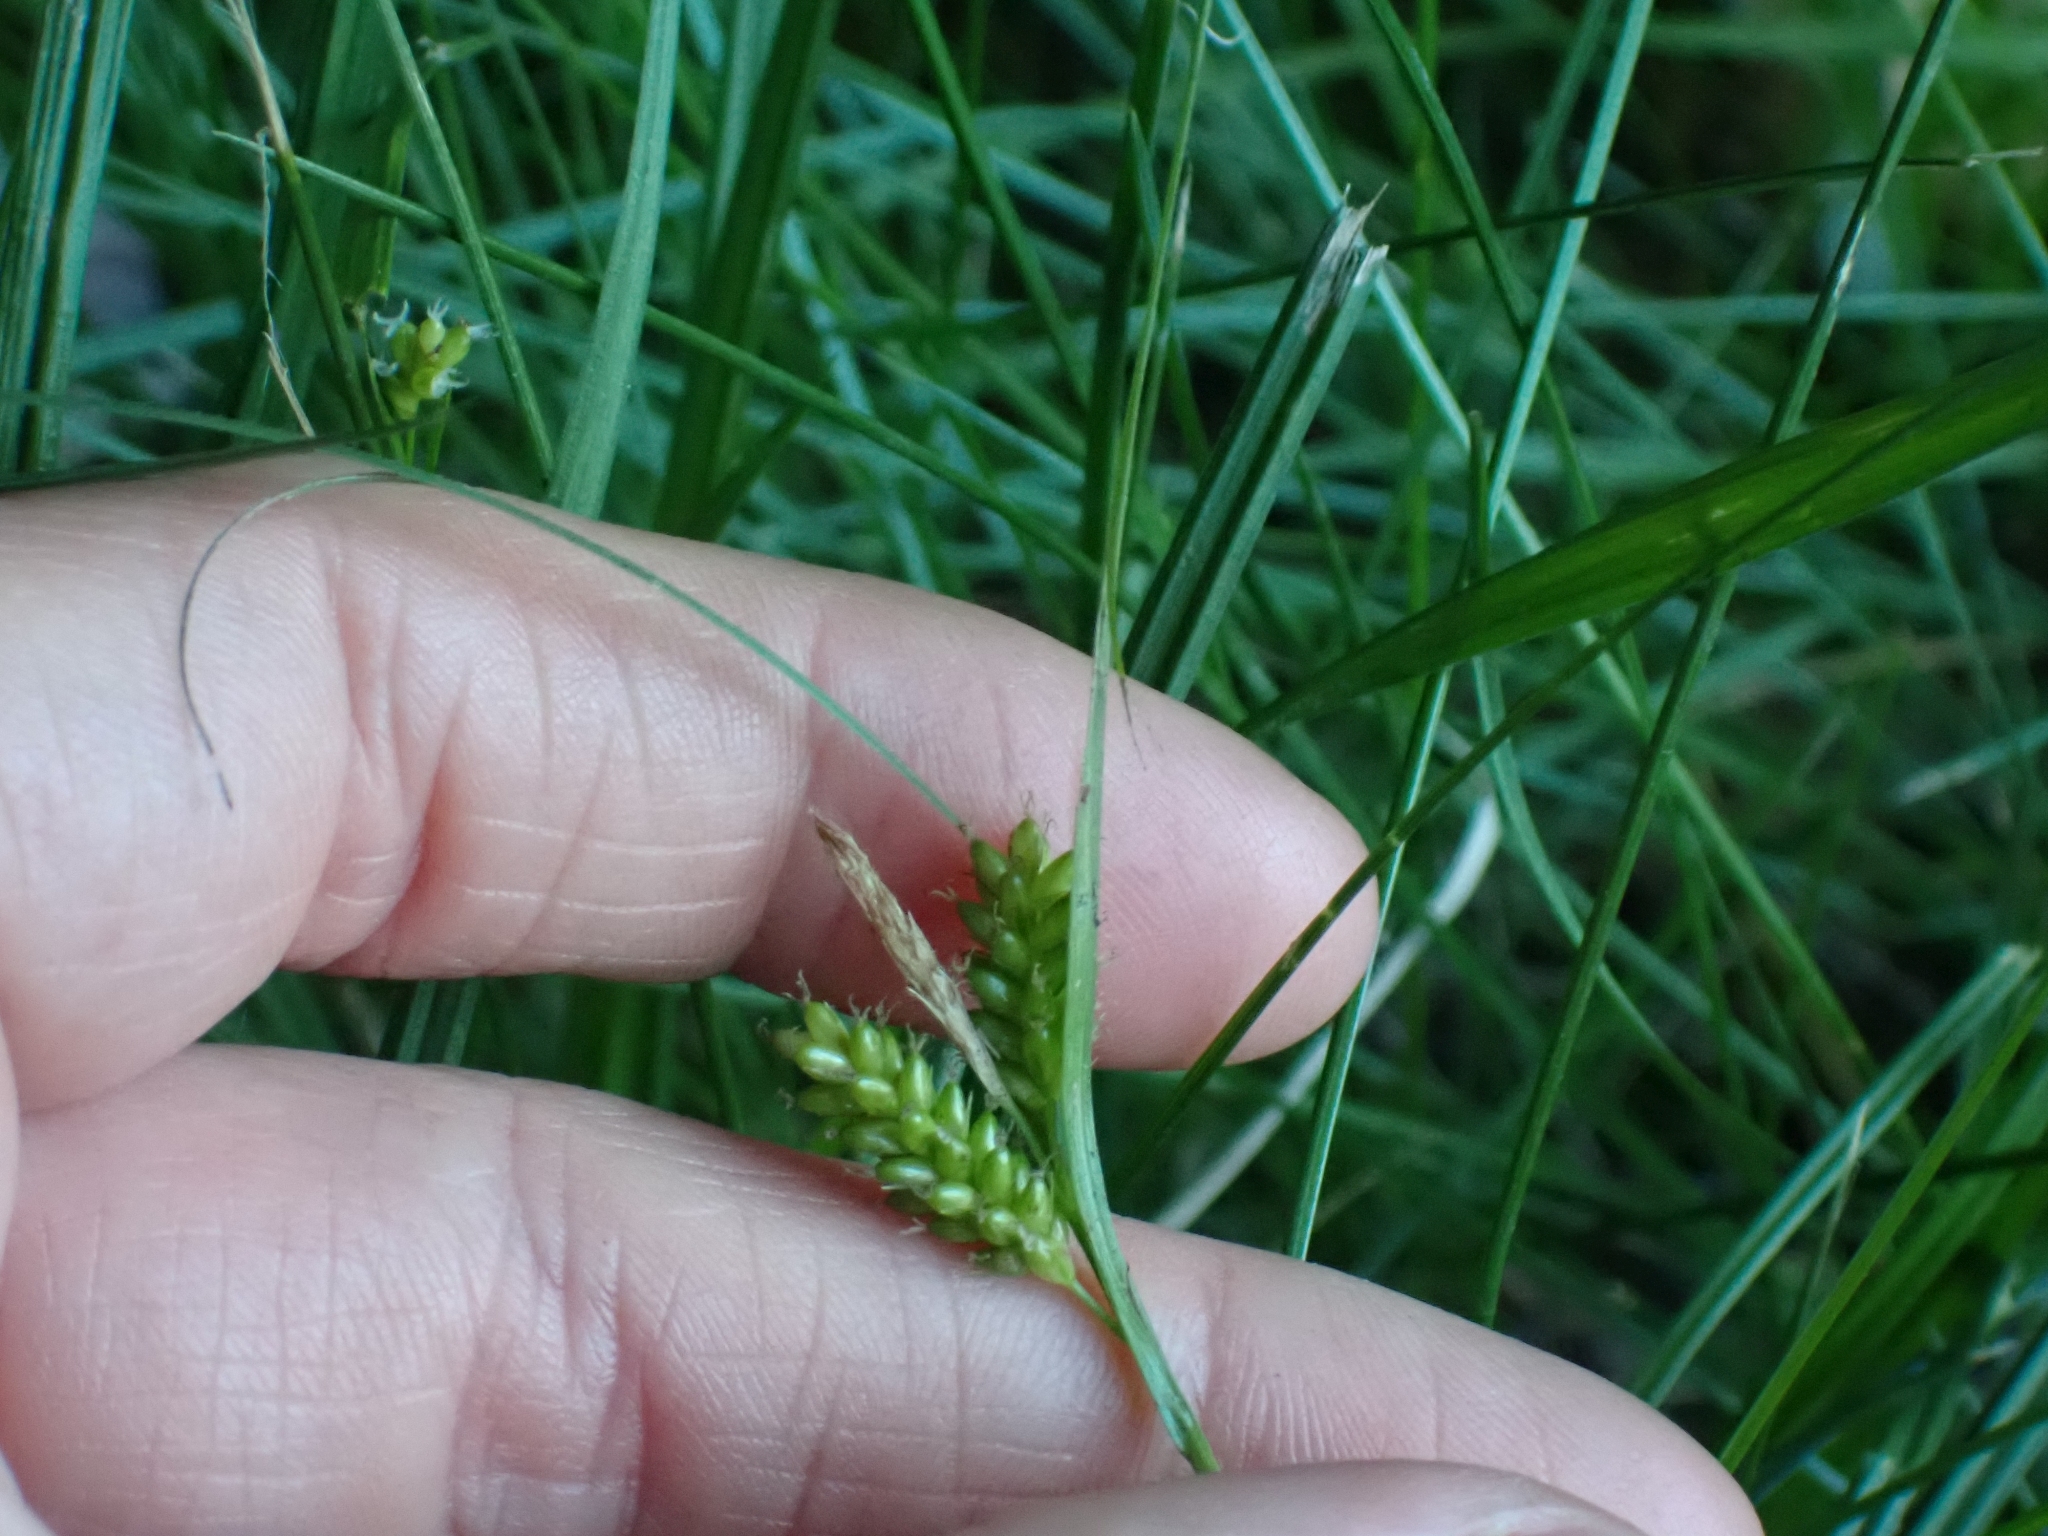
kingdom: Plantae
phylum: Tracheophyta
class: Liliopsida
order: Poales
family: Cyperaceae
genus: Carex
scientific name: Carex pallescens
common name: Pale sedge
